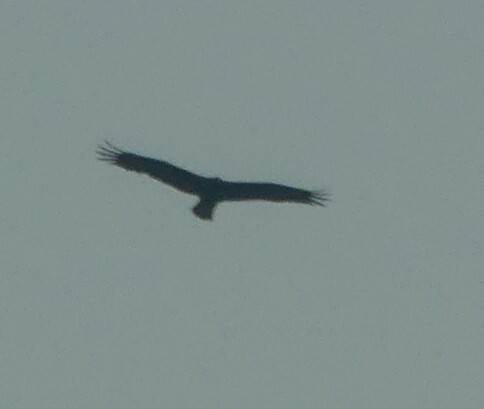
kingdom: Animalia
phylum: Chordata
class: Aves
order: Accipitriformes
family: Accipitridae
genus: Aquila
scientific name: Aquila chrysaetos
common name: Golden eagle
